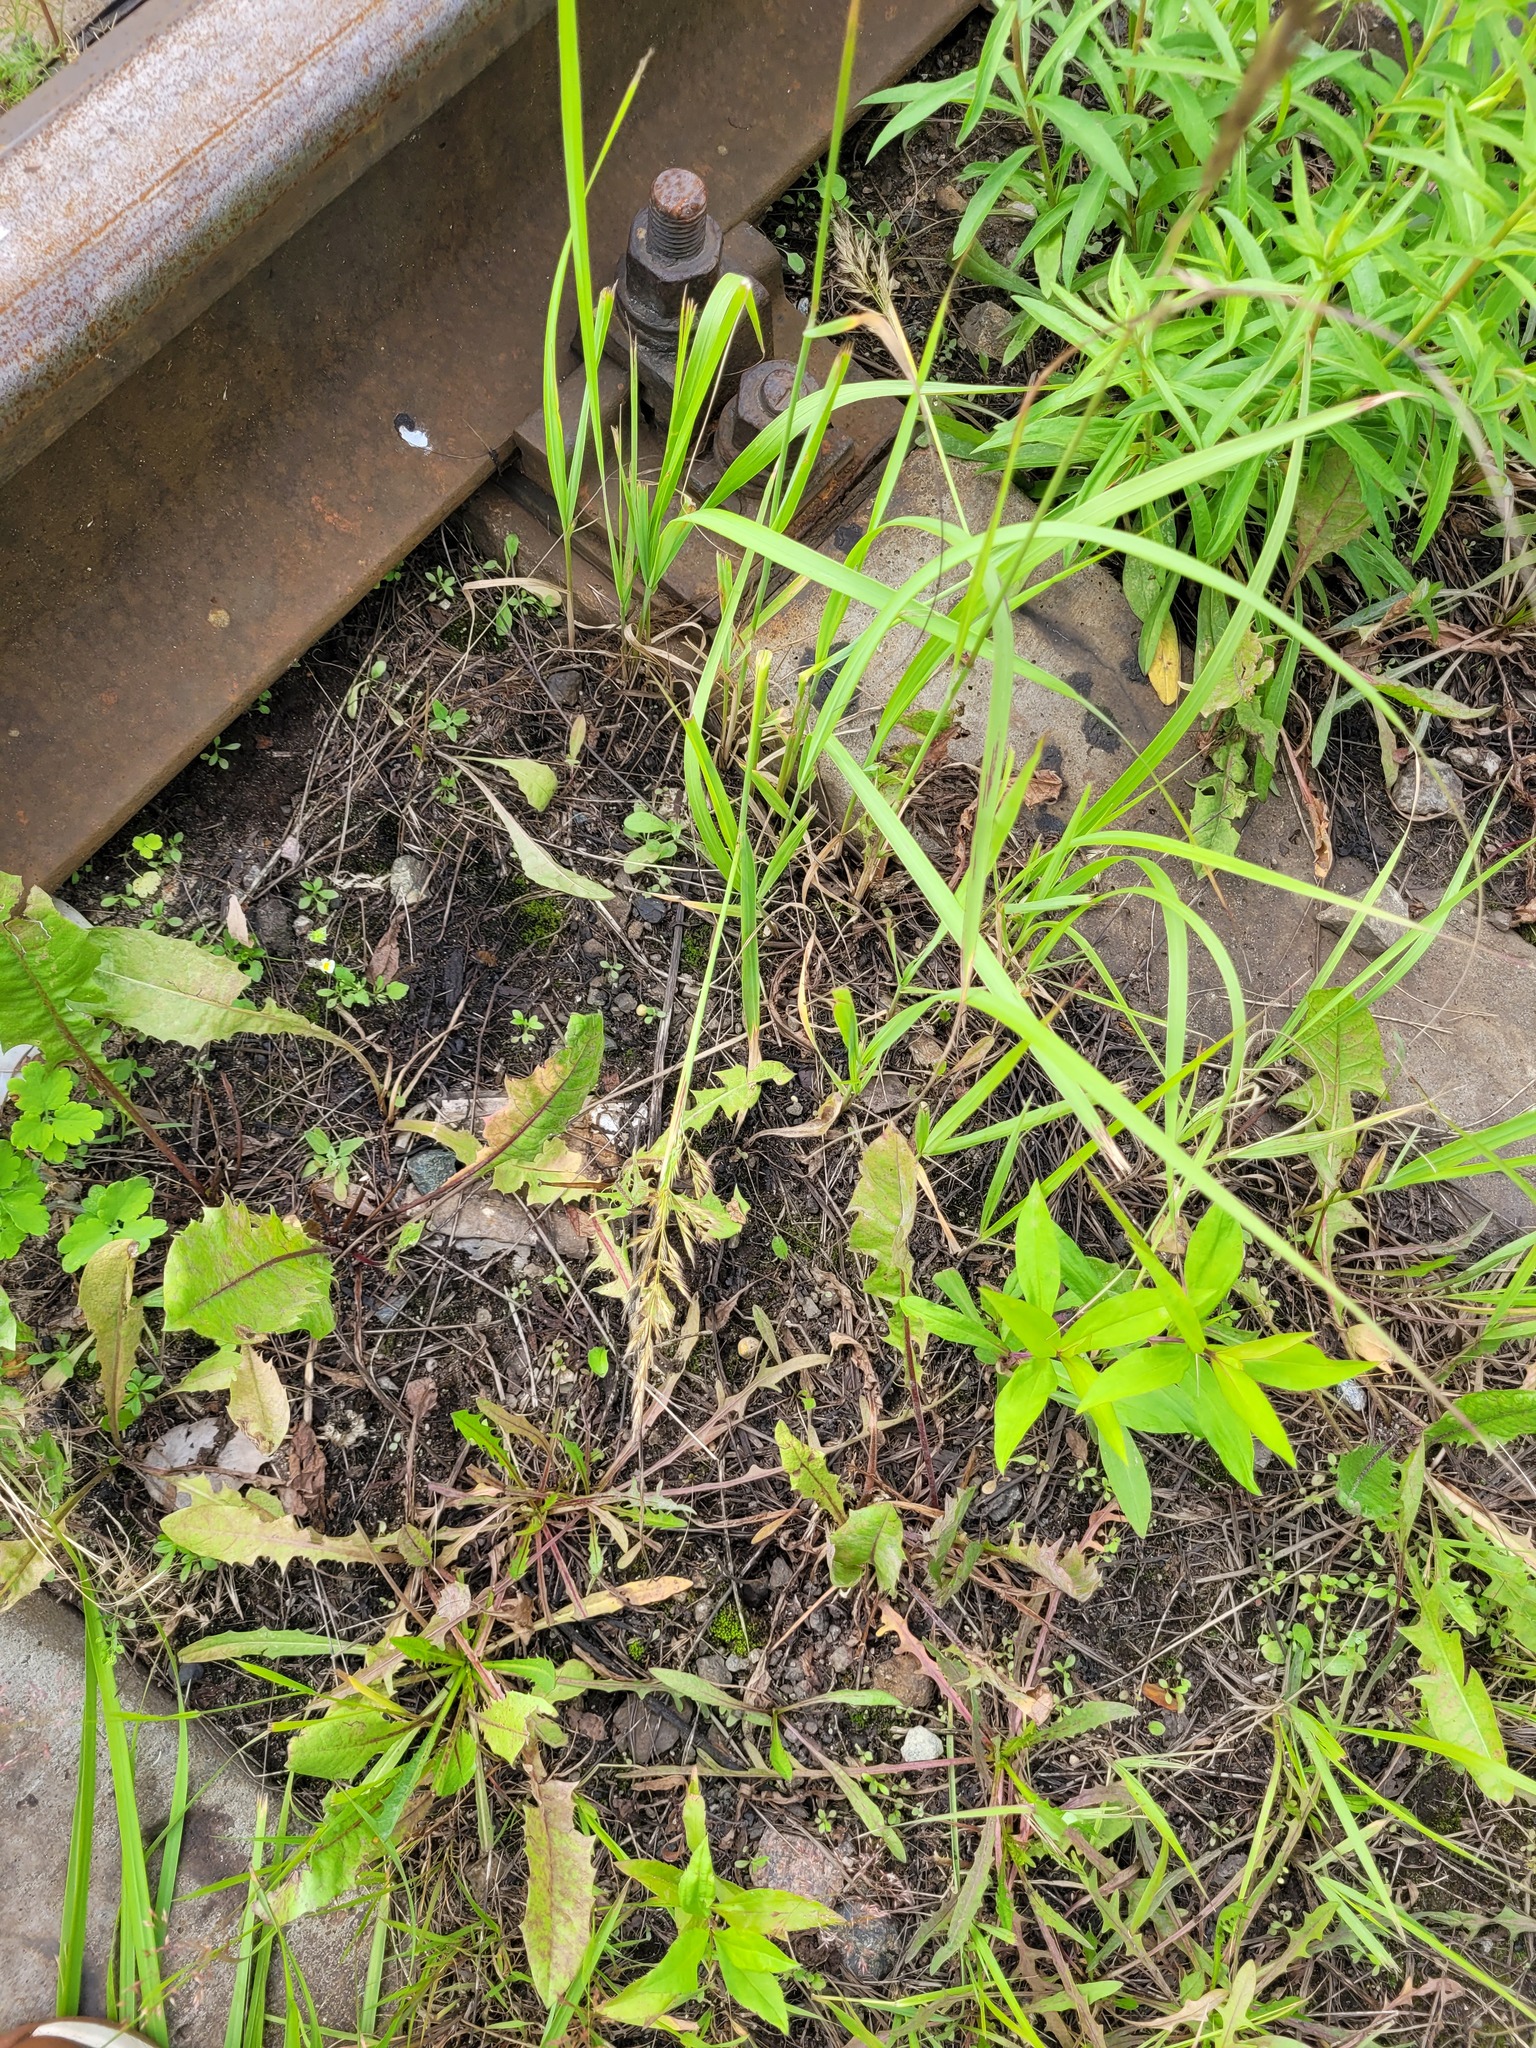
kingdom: Plantae
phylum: Tracheophyta
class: Liliopsida
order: Poales
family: Poaceae
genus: Calamagrostis
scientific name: Calamagrostis epigejos
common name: Wood small-reed
